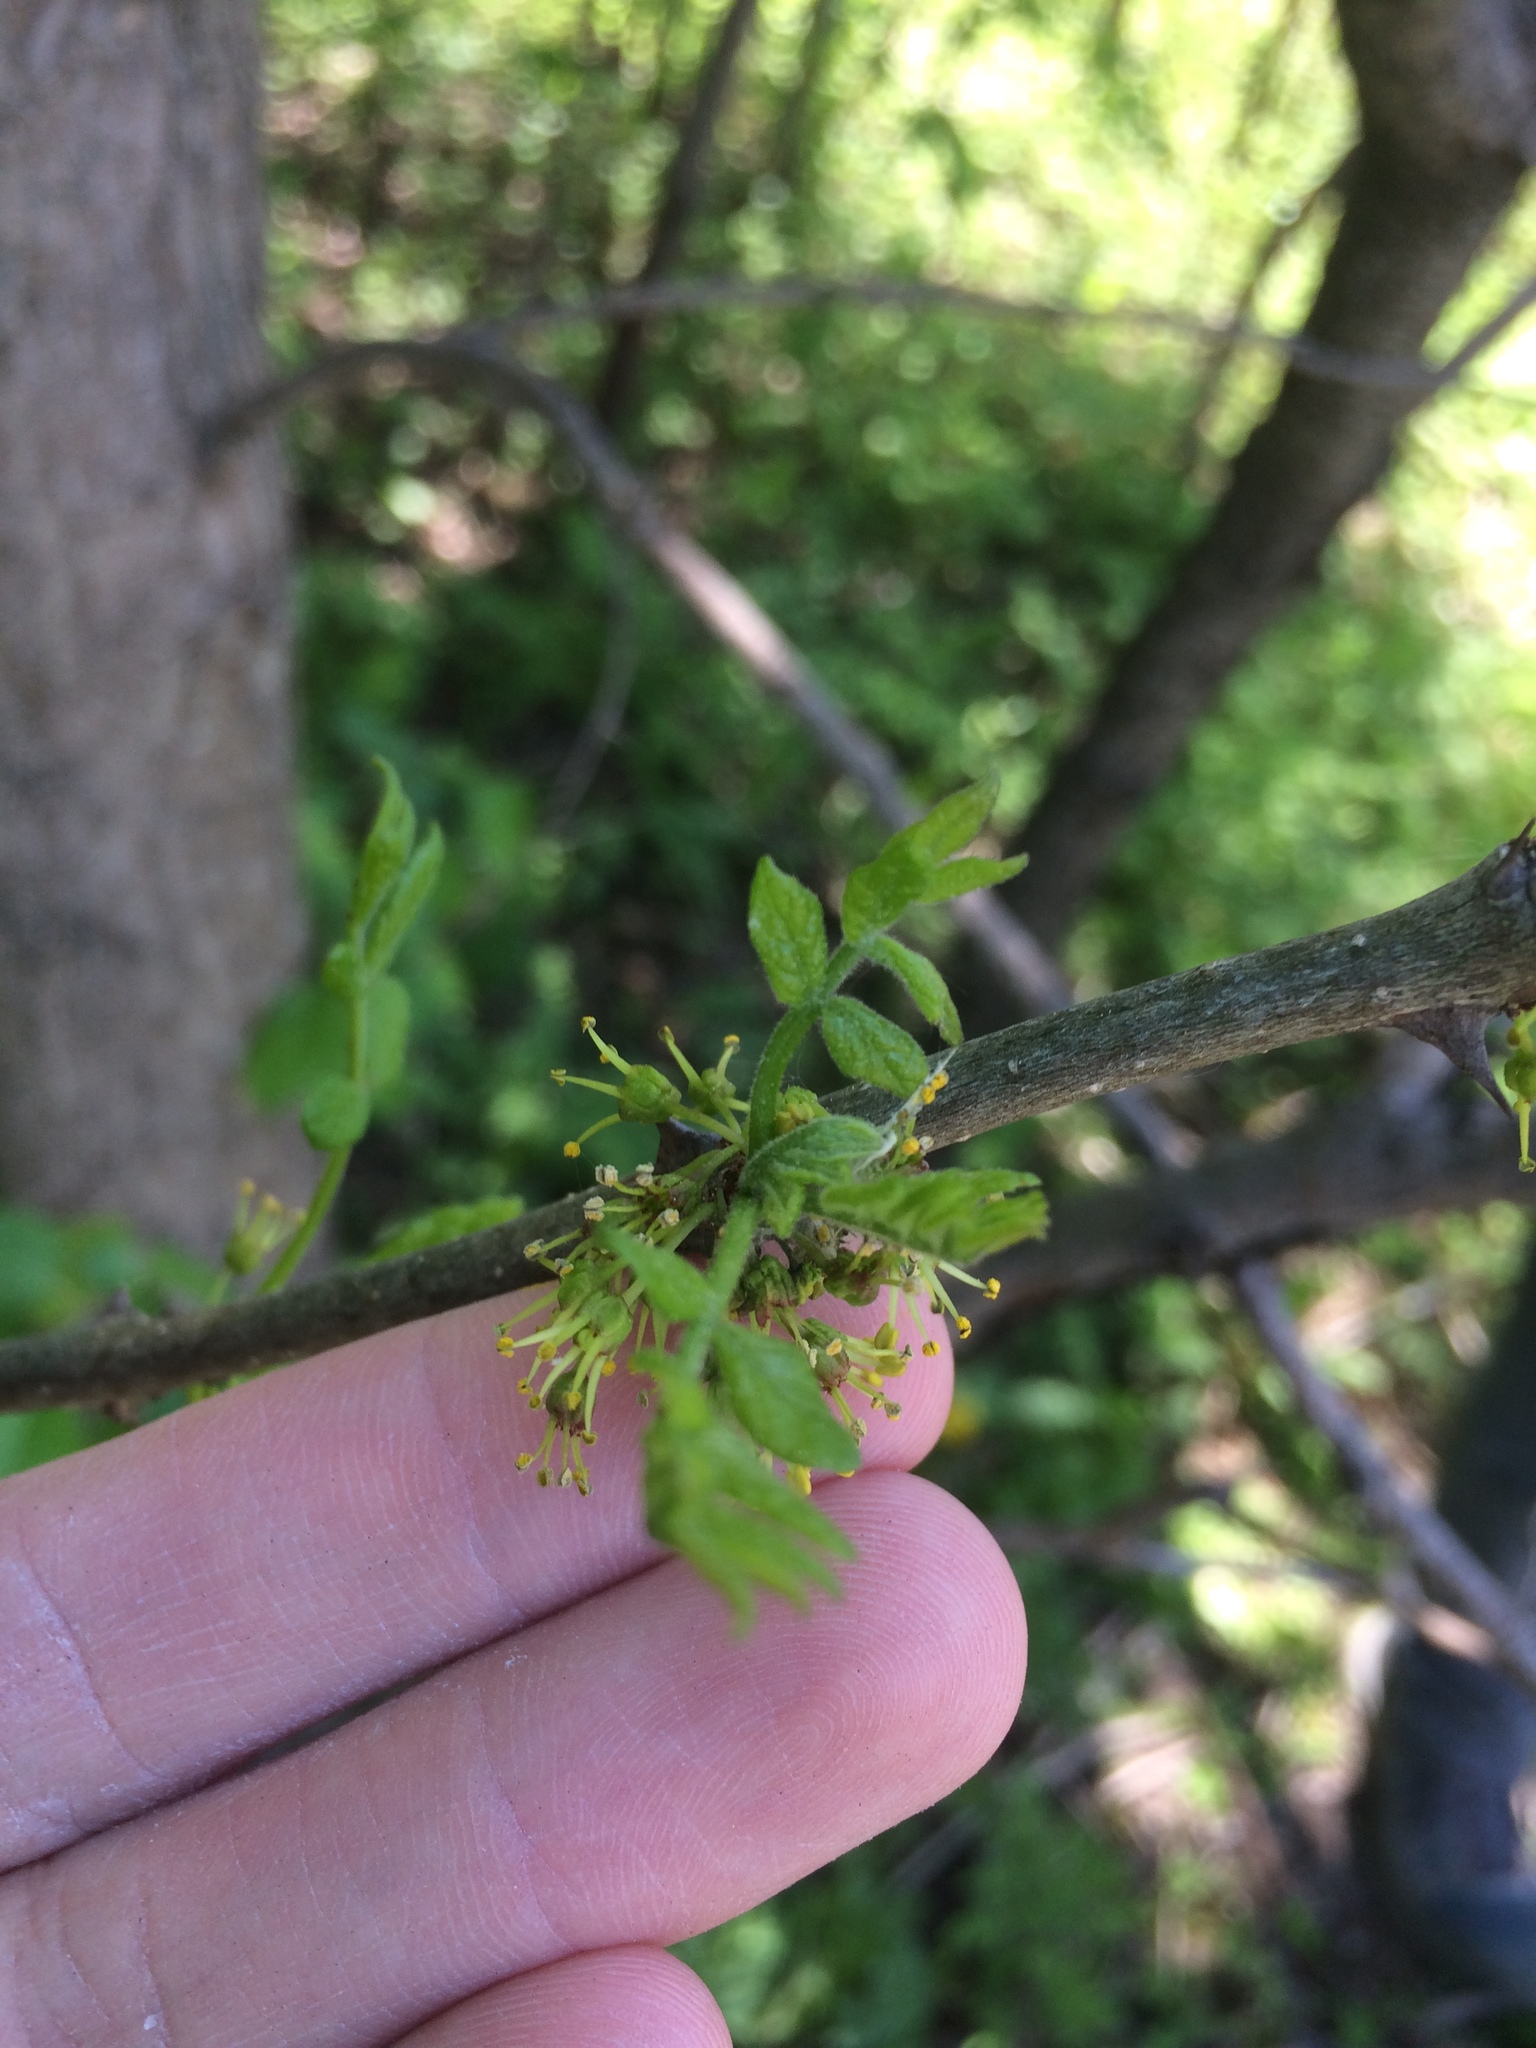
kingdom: Plantae
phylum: Tracheophyta
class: Magnoliopsida
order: Sapindales
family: Rutaceae
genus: Zanthoxylum
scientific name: Zanthoxylum americanum
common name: Northern prickly-ash
